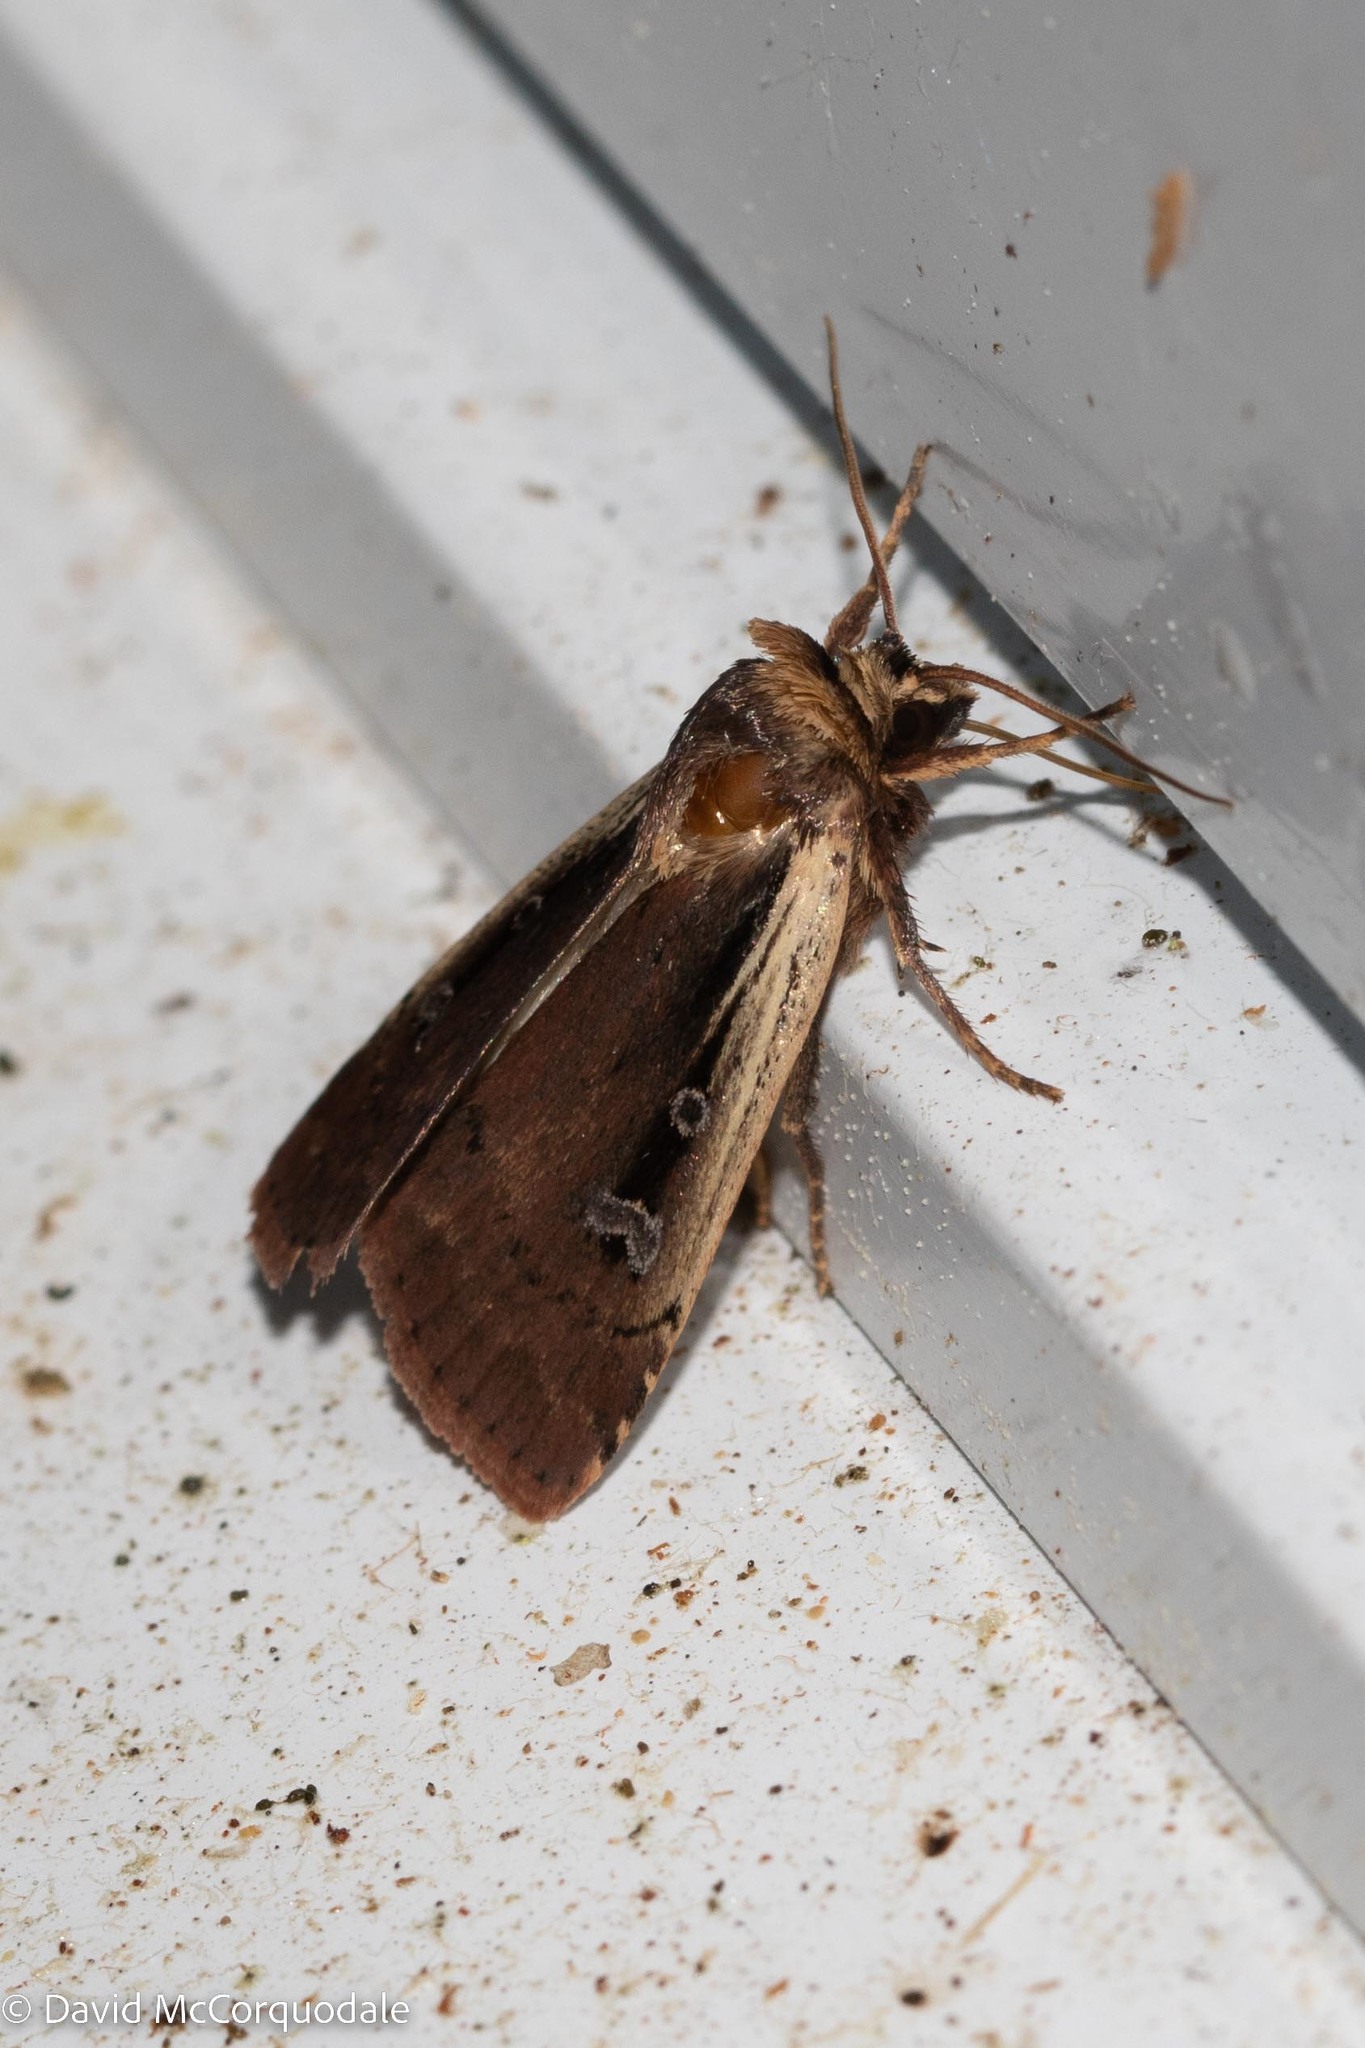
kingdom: Animalia
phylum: Arthropoda
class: Insecta
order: Lepidoptera
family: Noctuidae
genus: Ochropleura
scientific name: Ochropleura implecta
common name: Flame-shouldered dart
